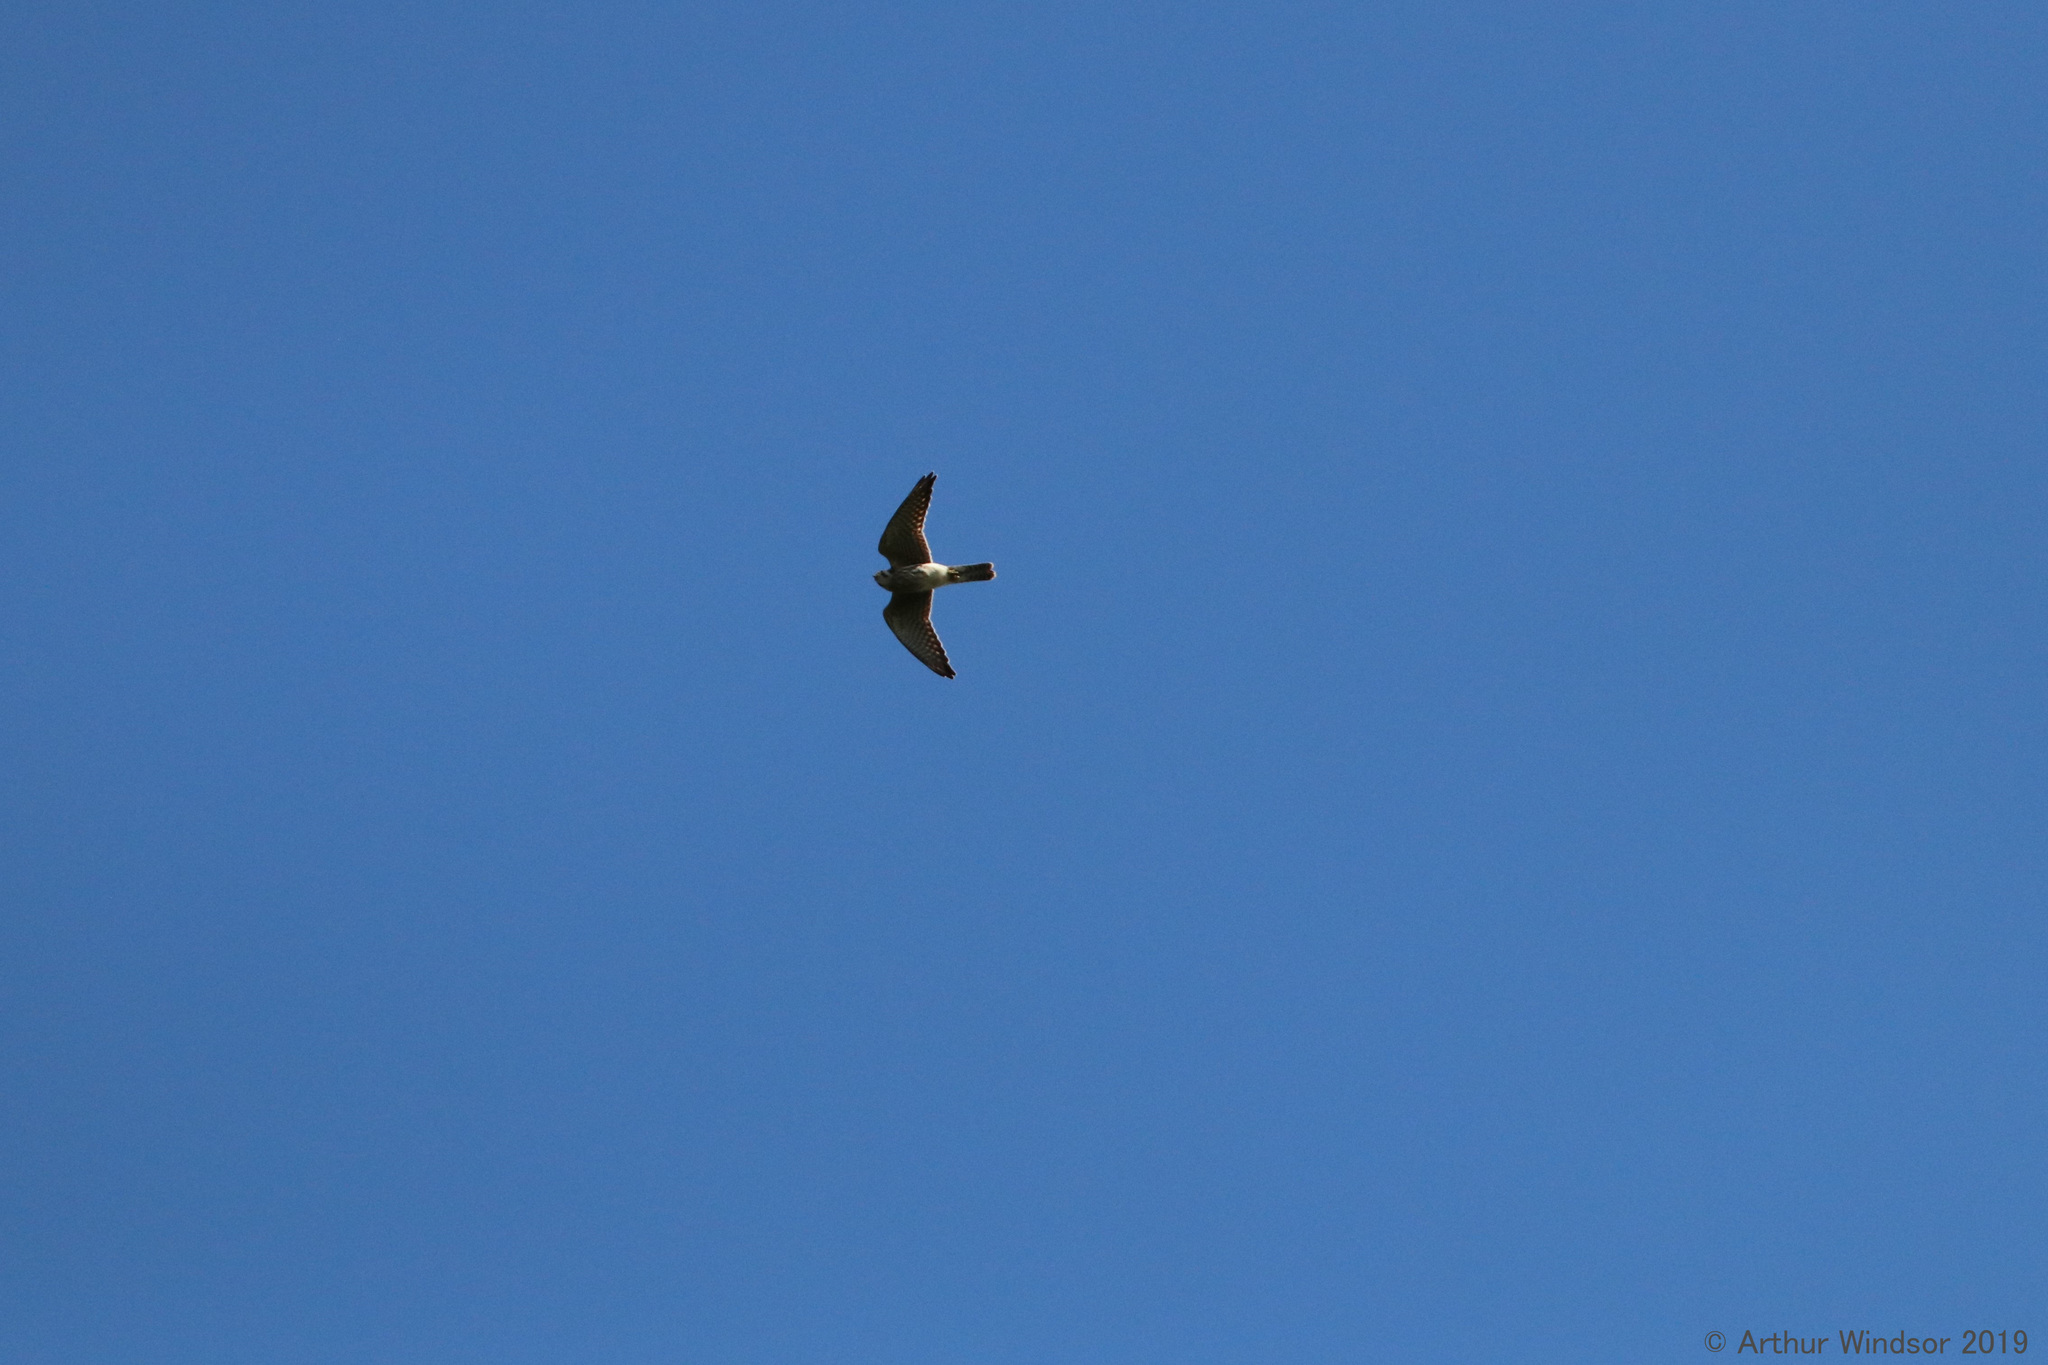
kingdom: Animalia
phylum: Chordata
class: Aves
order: Falconiformes
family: Falconidae
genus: Falco
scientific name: Falco sparverius
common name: American kestrel
